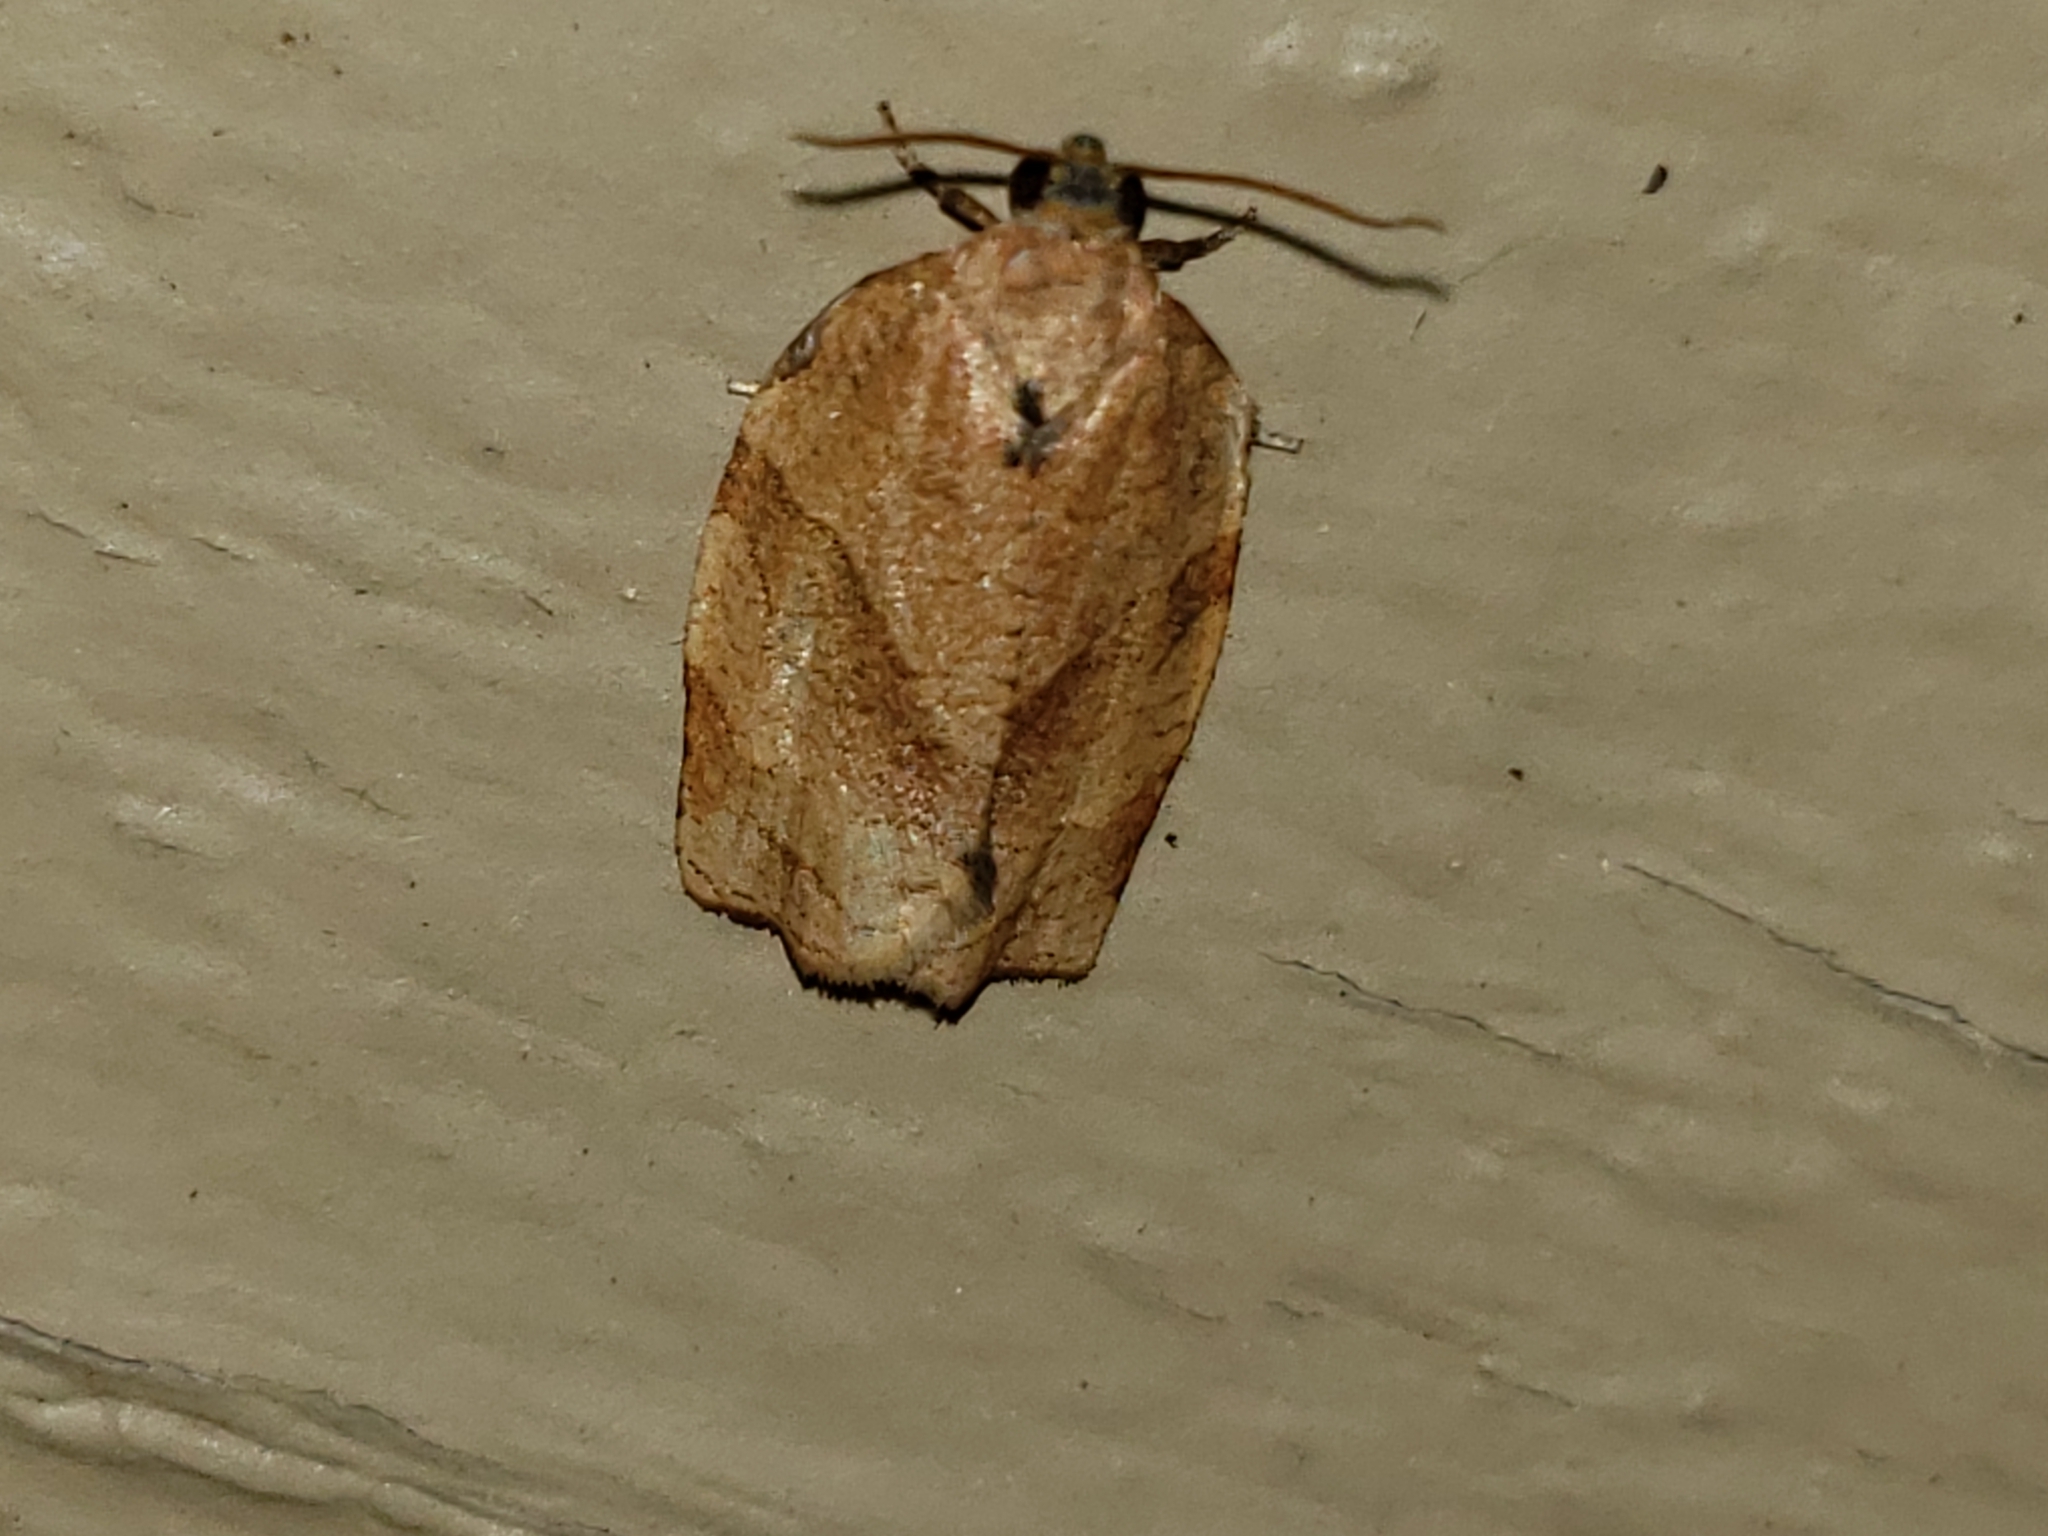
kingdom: Animalia
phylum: Arthropoda
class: Insecta
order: Lepidoptera
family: Tortricidae
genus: Choristoneura
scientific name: Choristoneura rosaceana
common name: Oblique-banded leafroller moth
